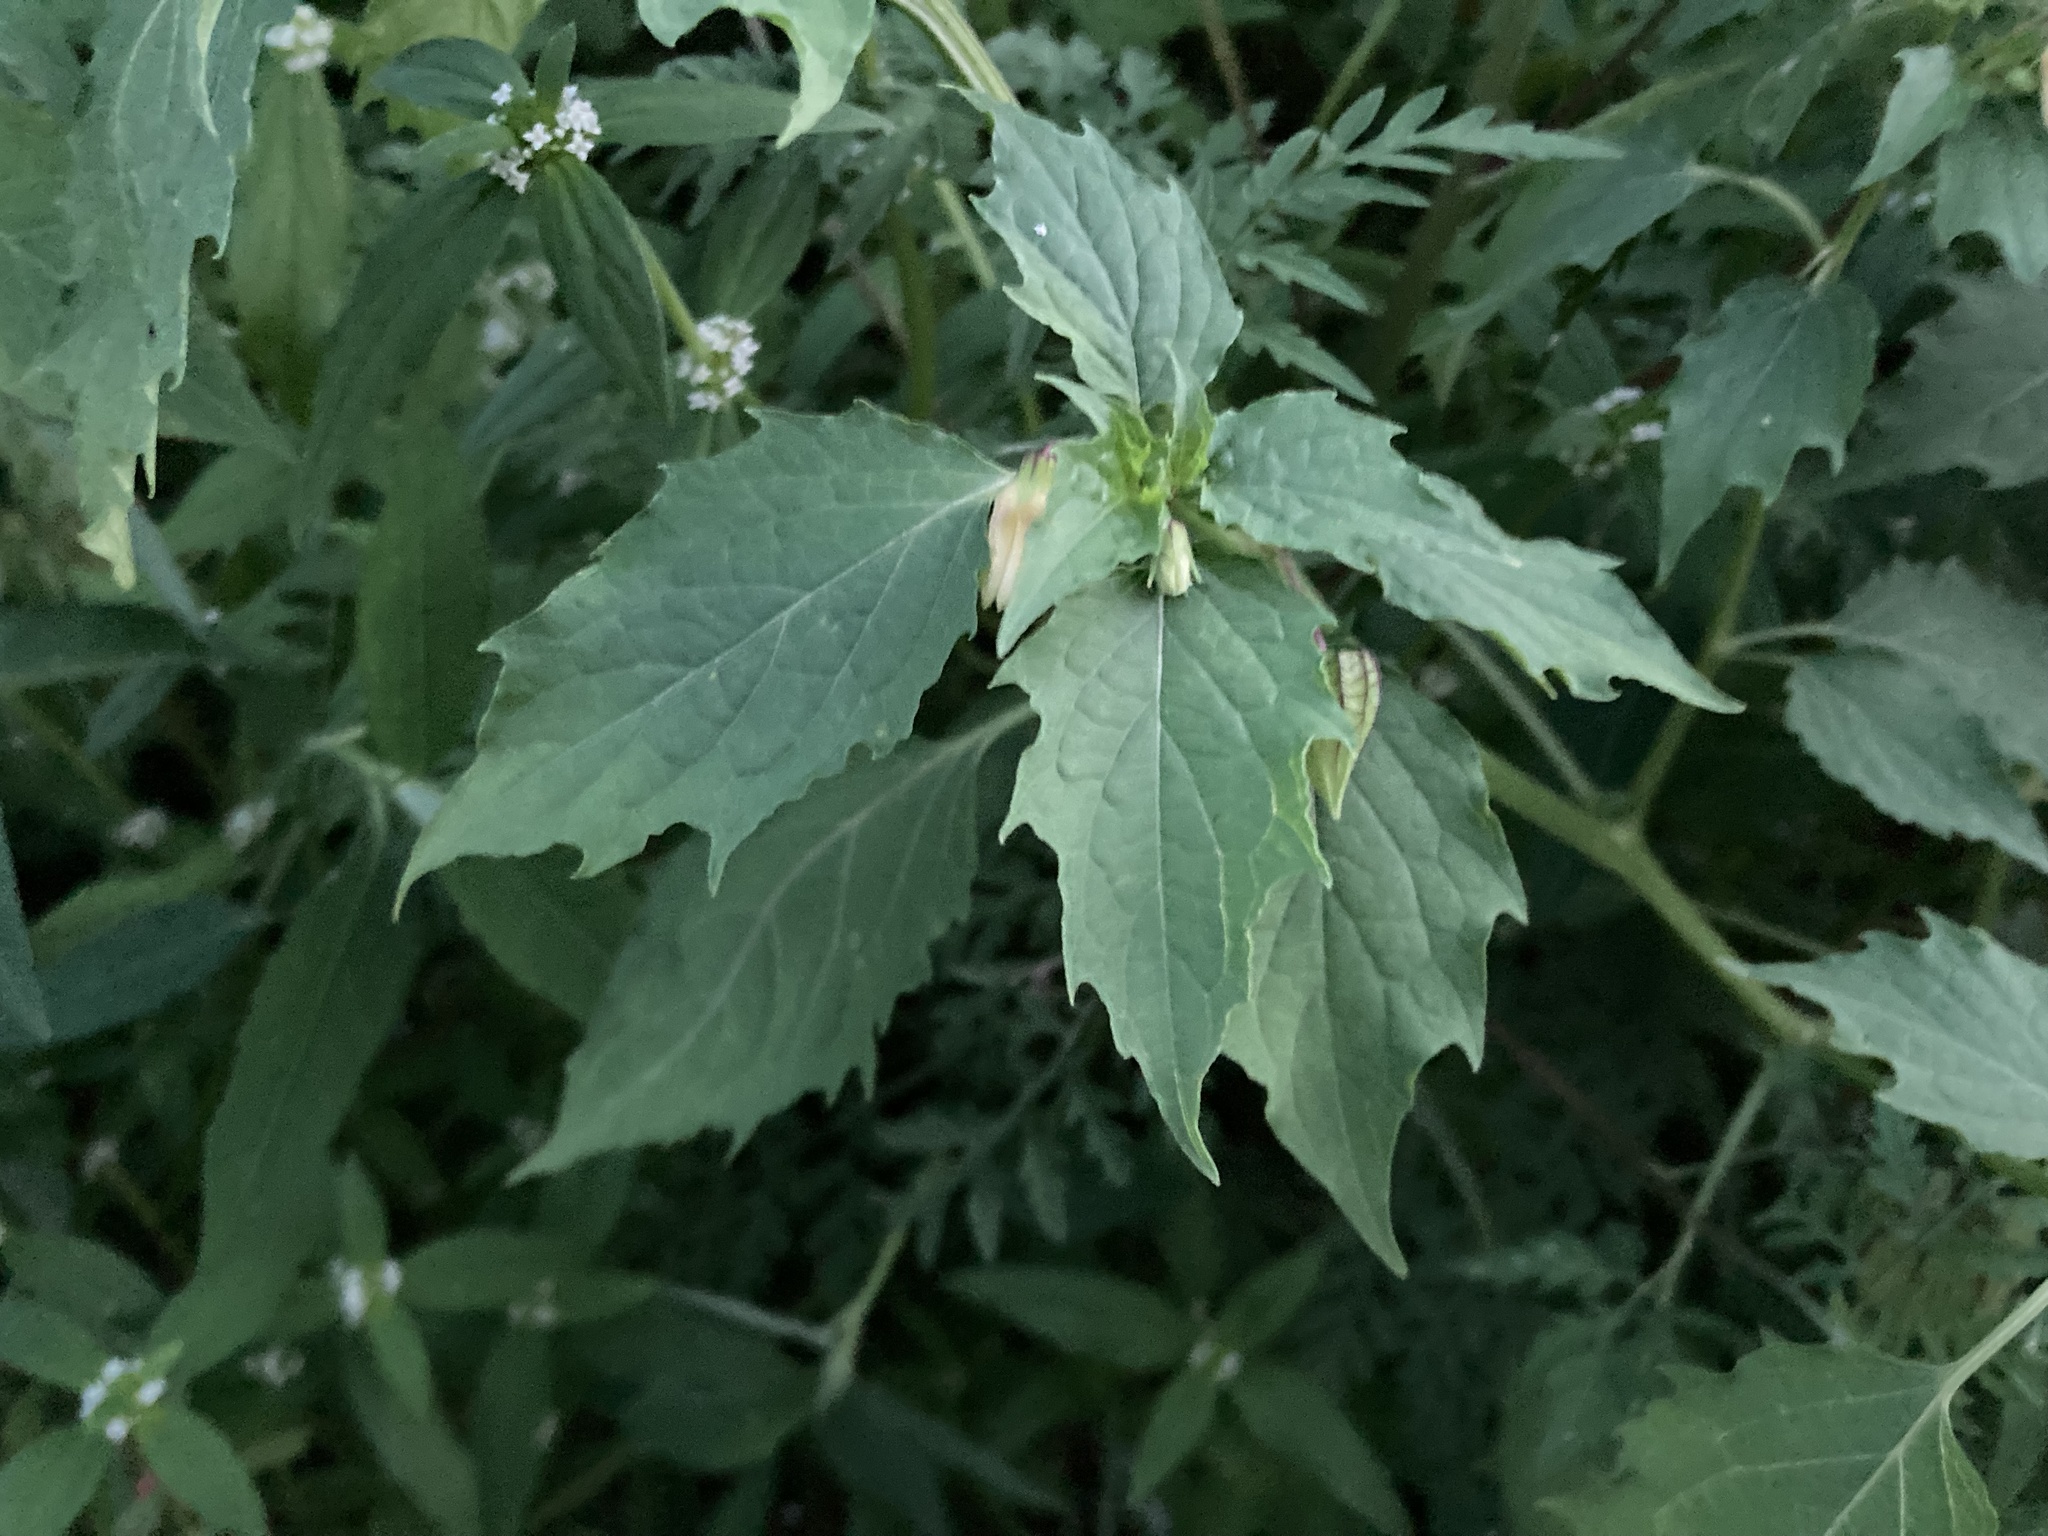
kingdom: Plantae
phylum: Tracheophyta
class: Magnoliopsida
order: Solanales
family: Solanaceae
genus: Physalis
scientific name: Physalis angulata
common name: Angular winter-cherry
